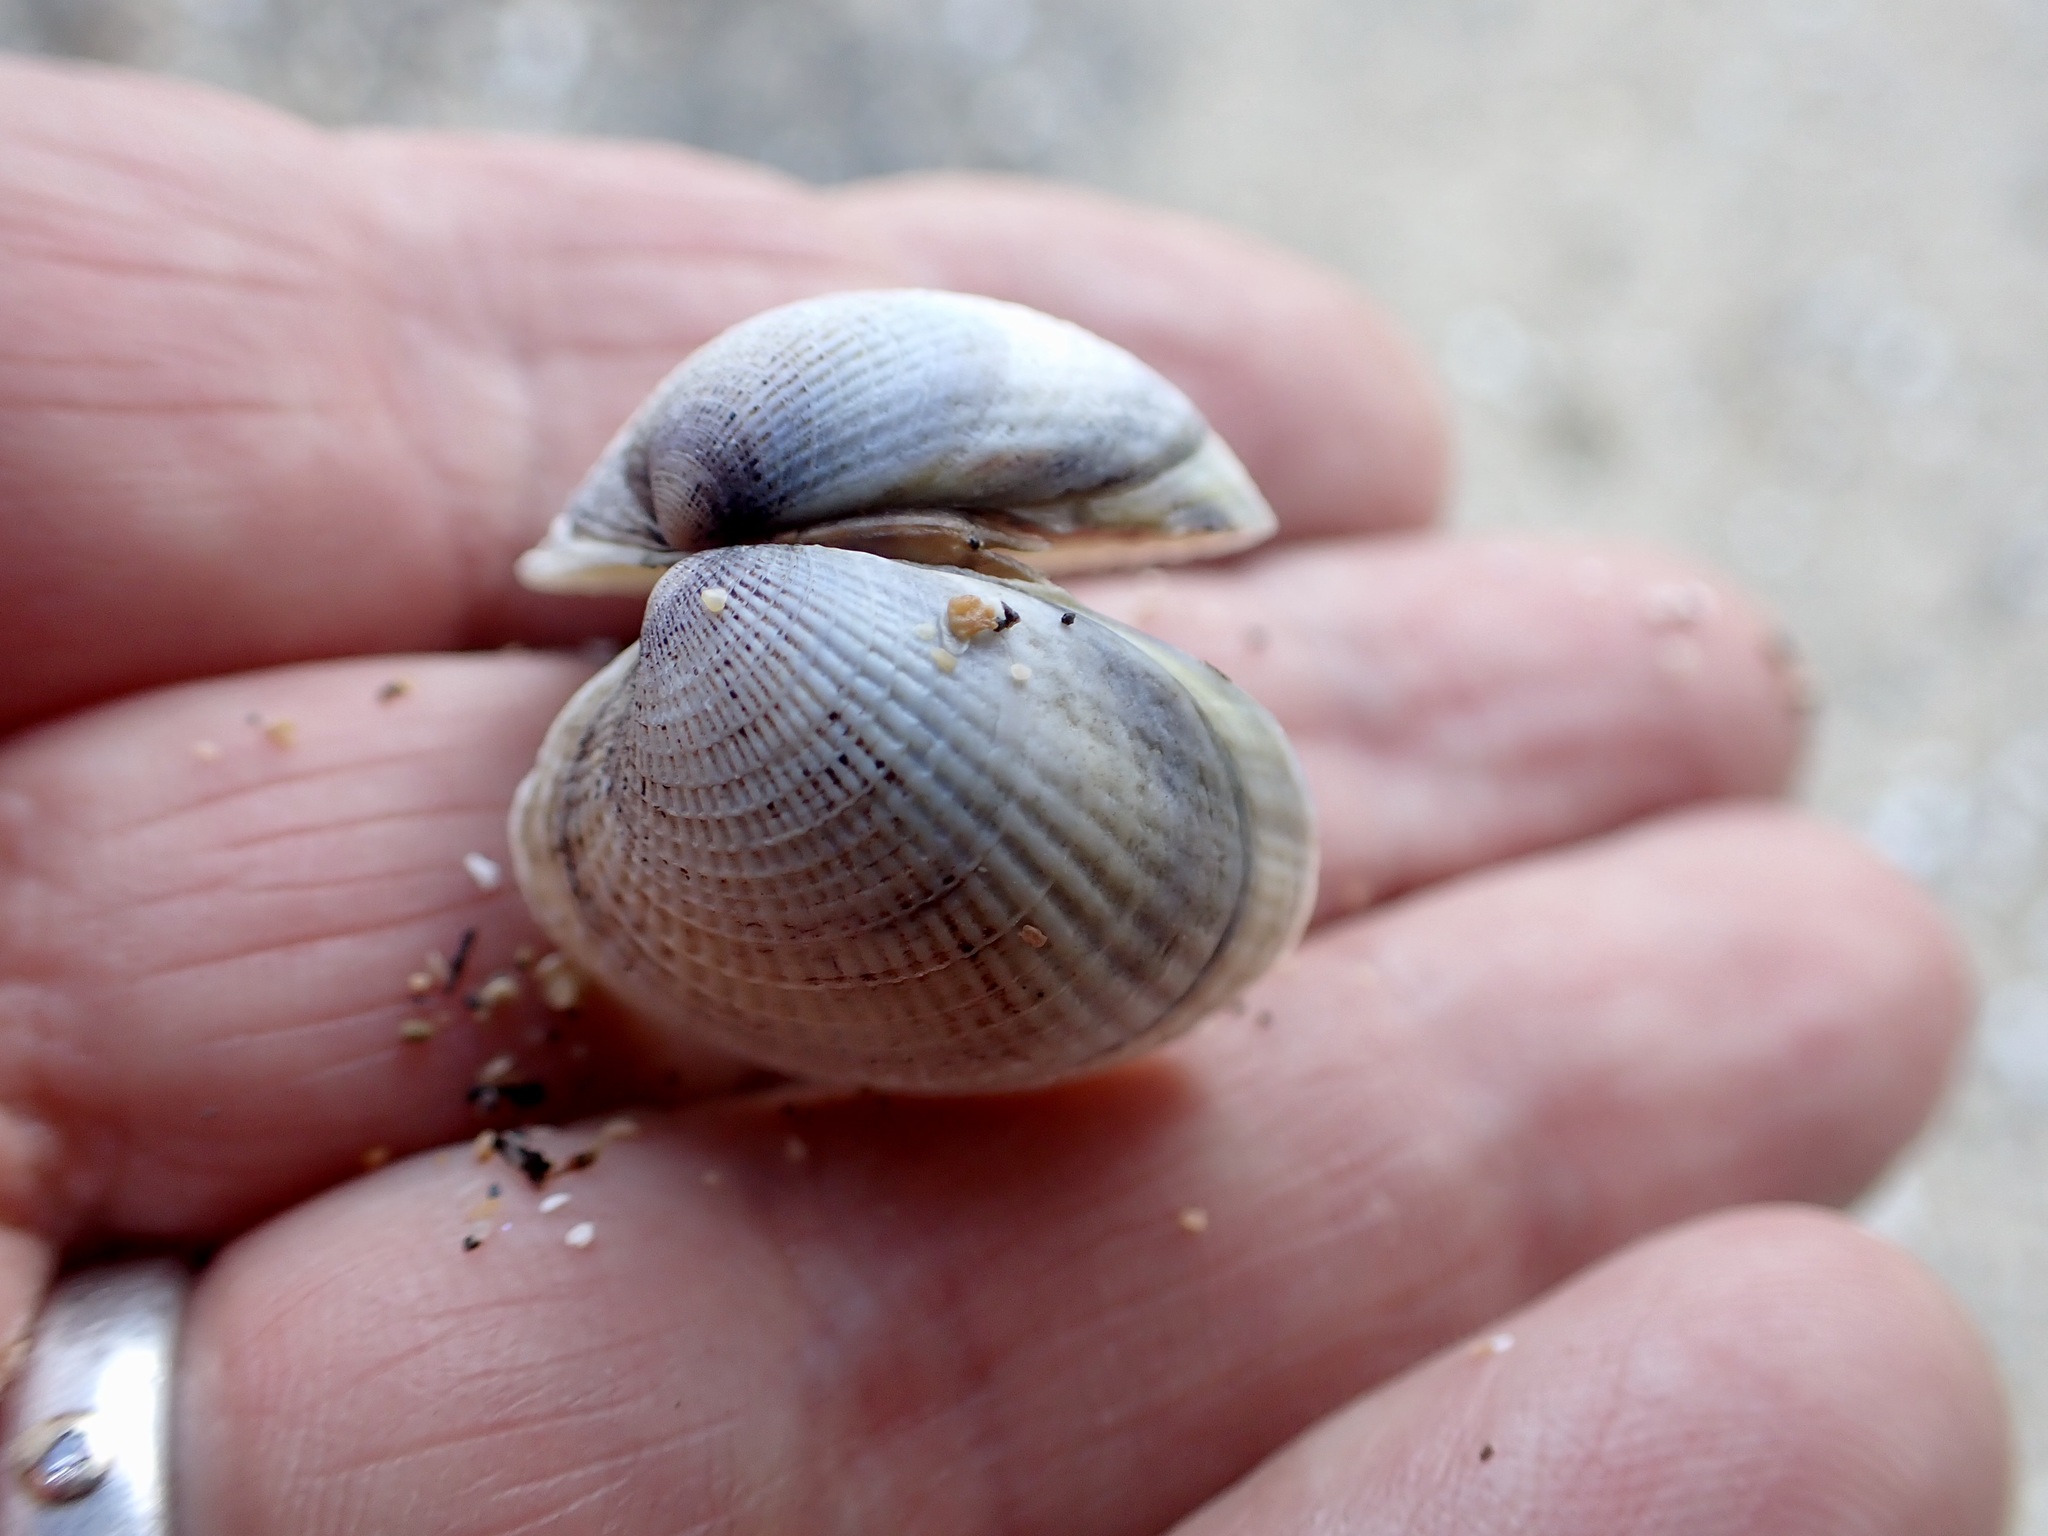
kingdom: Animalia
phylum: Mollusca
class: Bivalvia
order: Venerida
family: Veneridae
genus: Austrovenus
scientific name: Austrovenus stutchburyi
